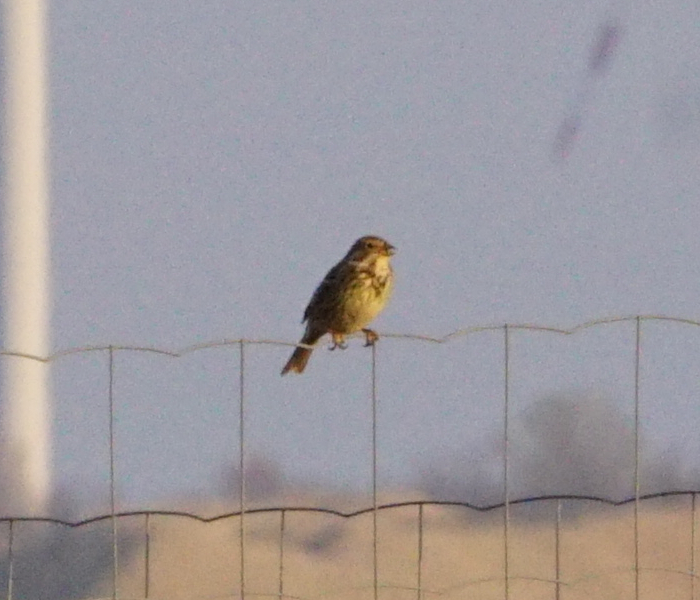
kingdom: Animalia
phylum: Chordata
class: Aves
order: Passeriformes
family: Emberizidae
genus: Emberiza
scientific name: Emberiza calandra
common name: Corn bunting
